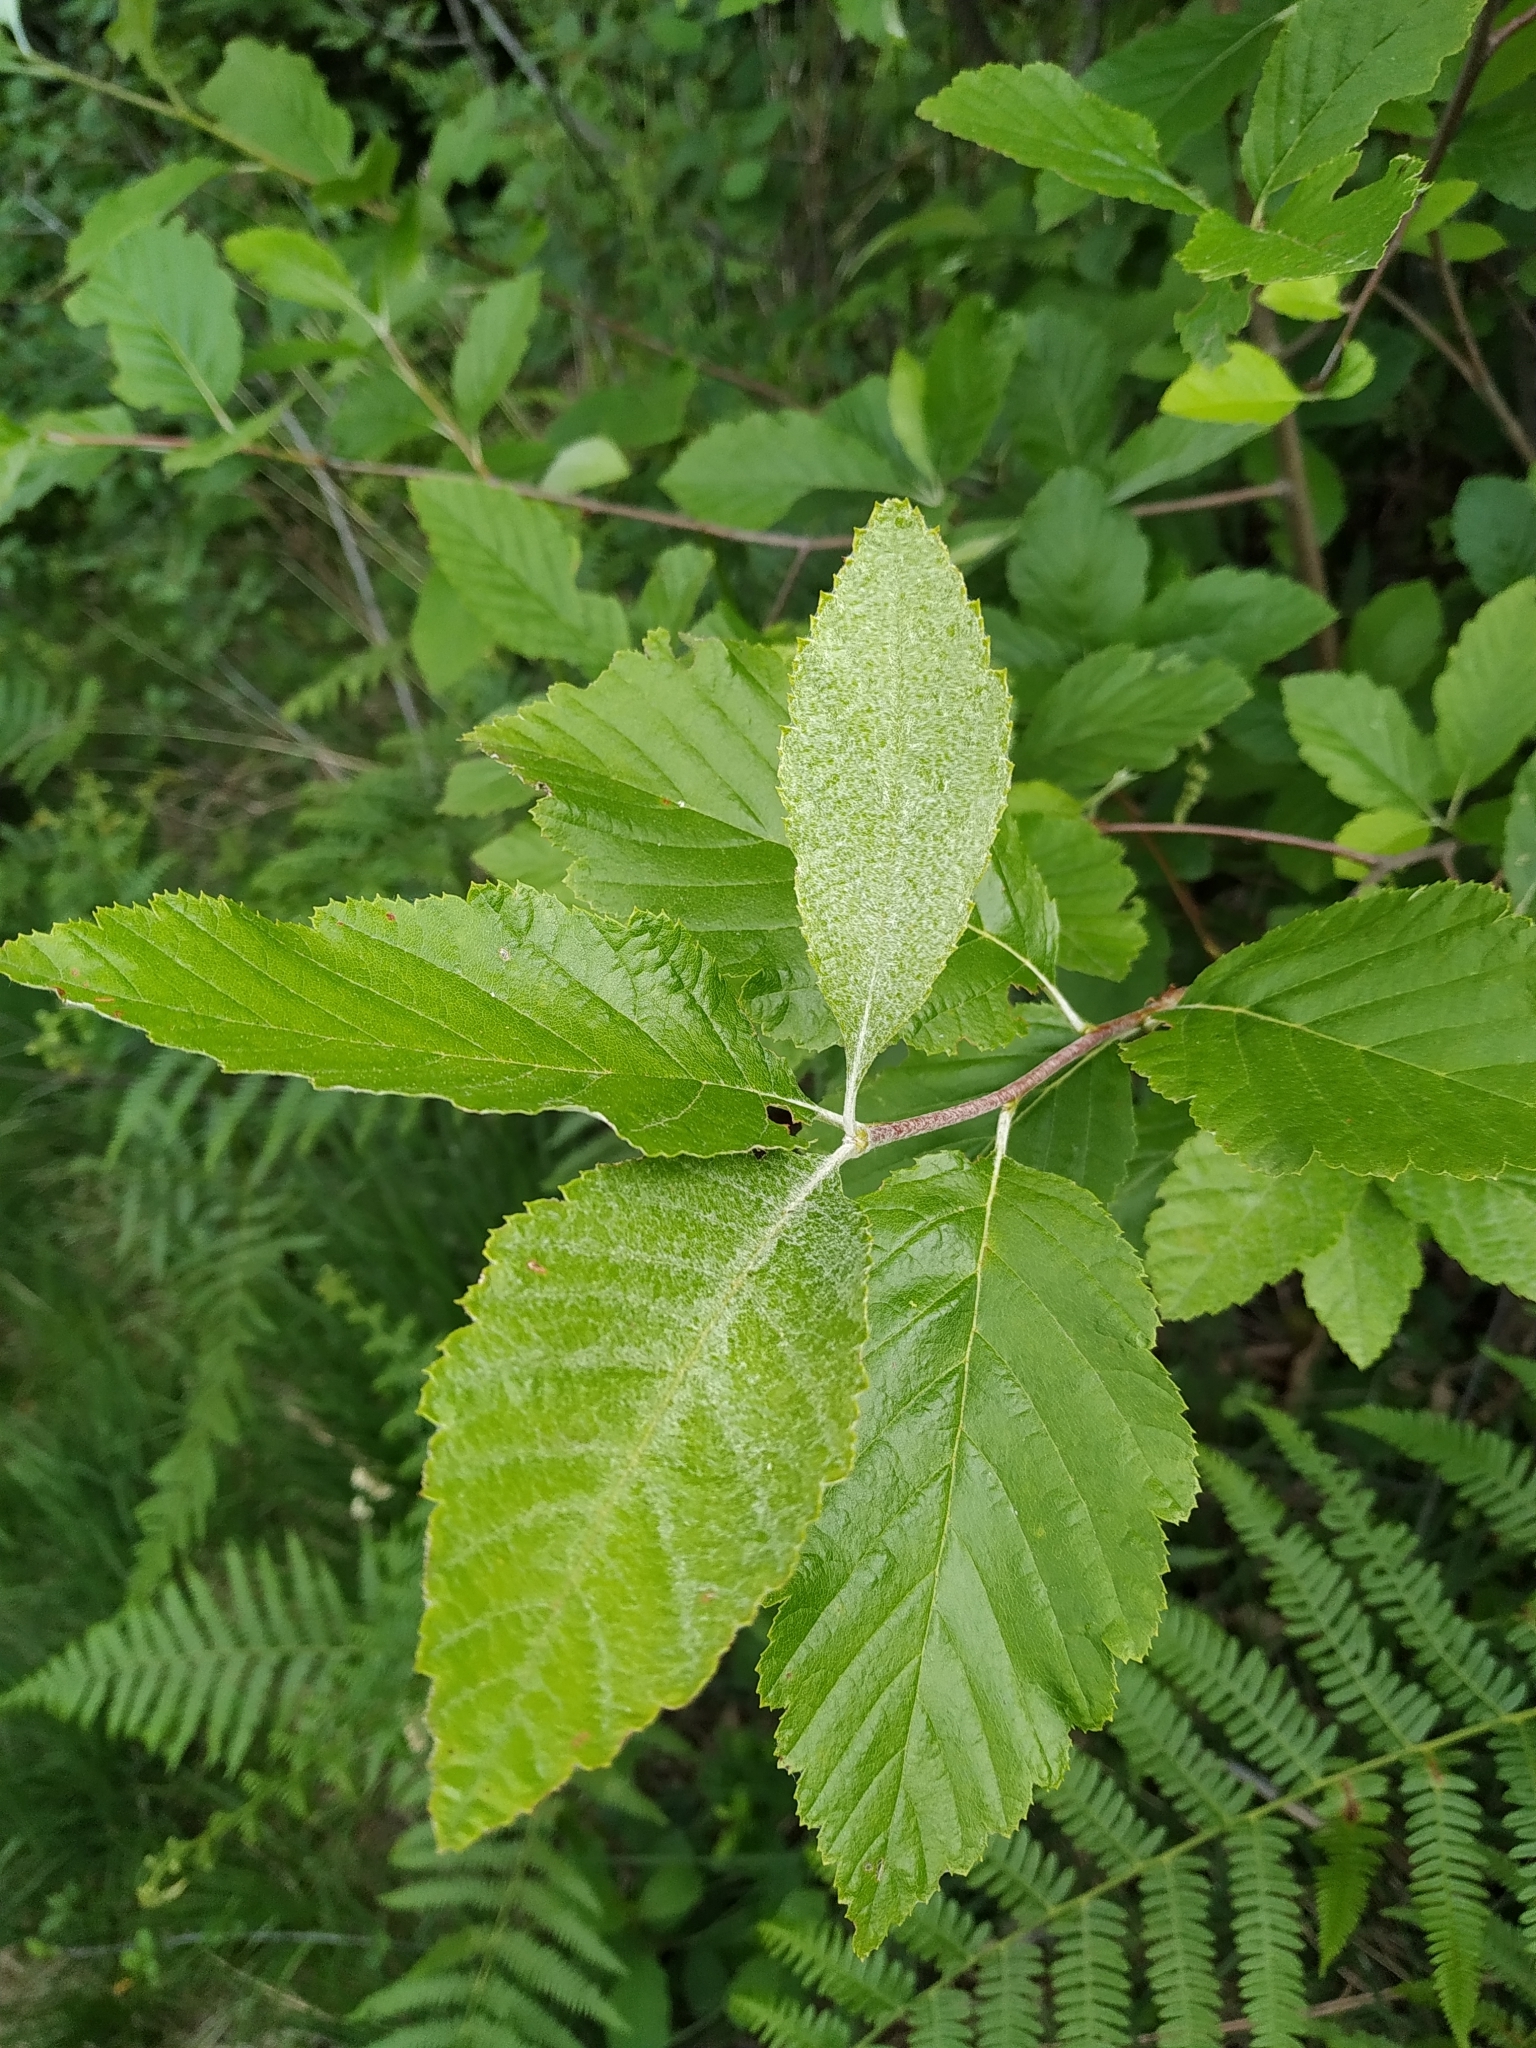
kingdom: Plantae
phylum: Tracheophyta
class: Magnoliopsida
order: Rosales
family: Rosaceae
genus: Aria
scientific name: Aria edulis
